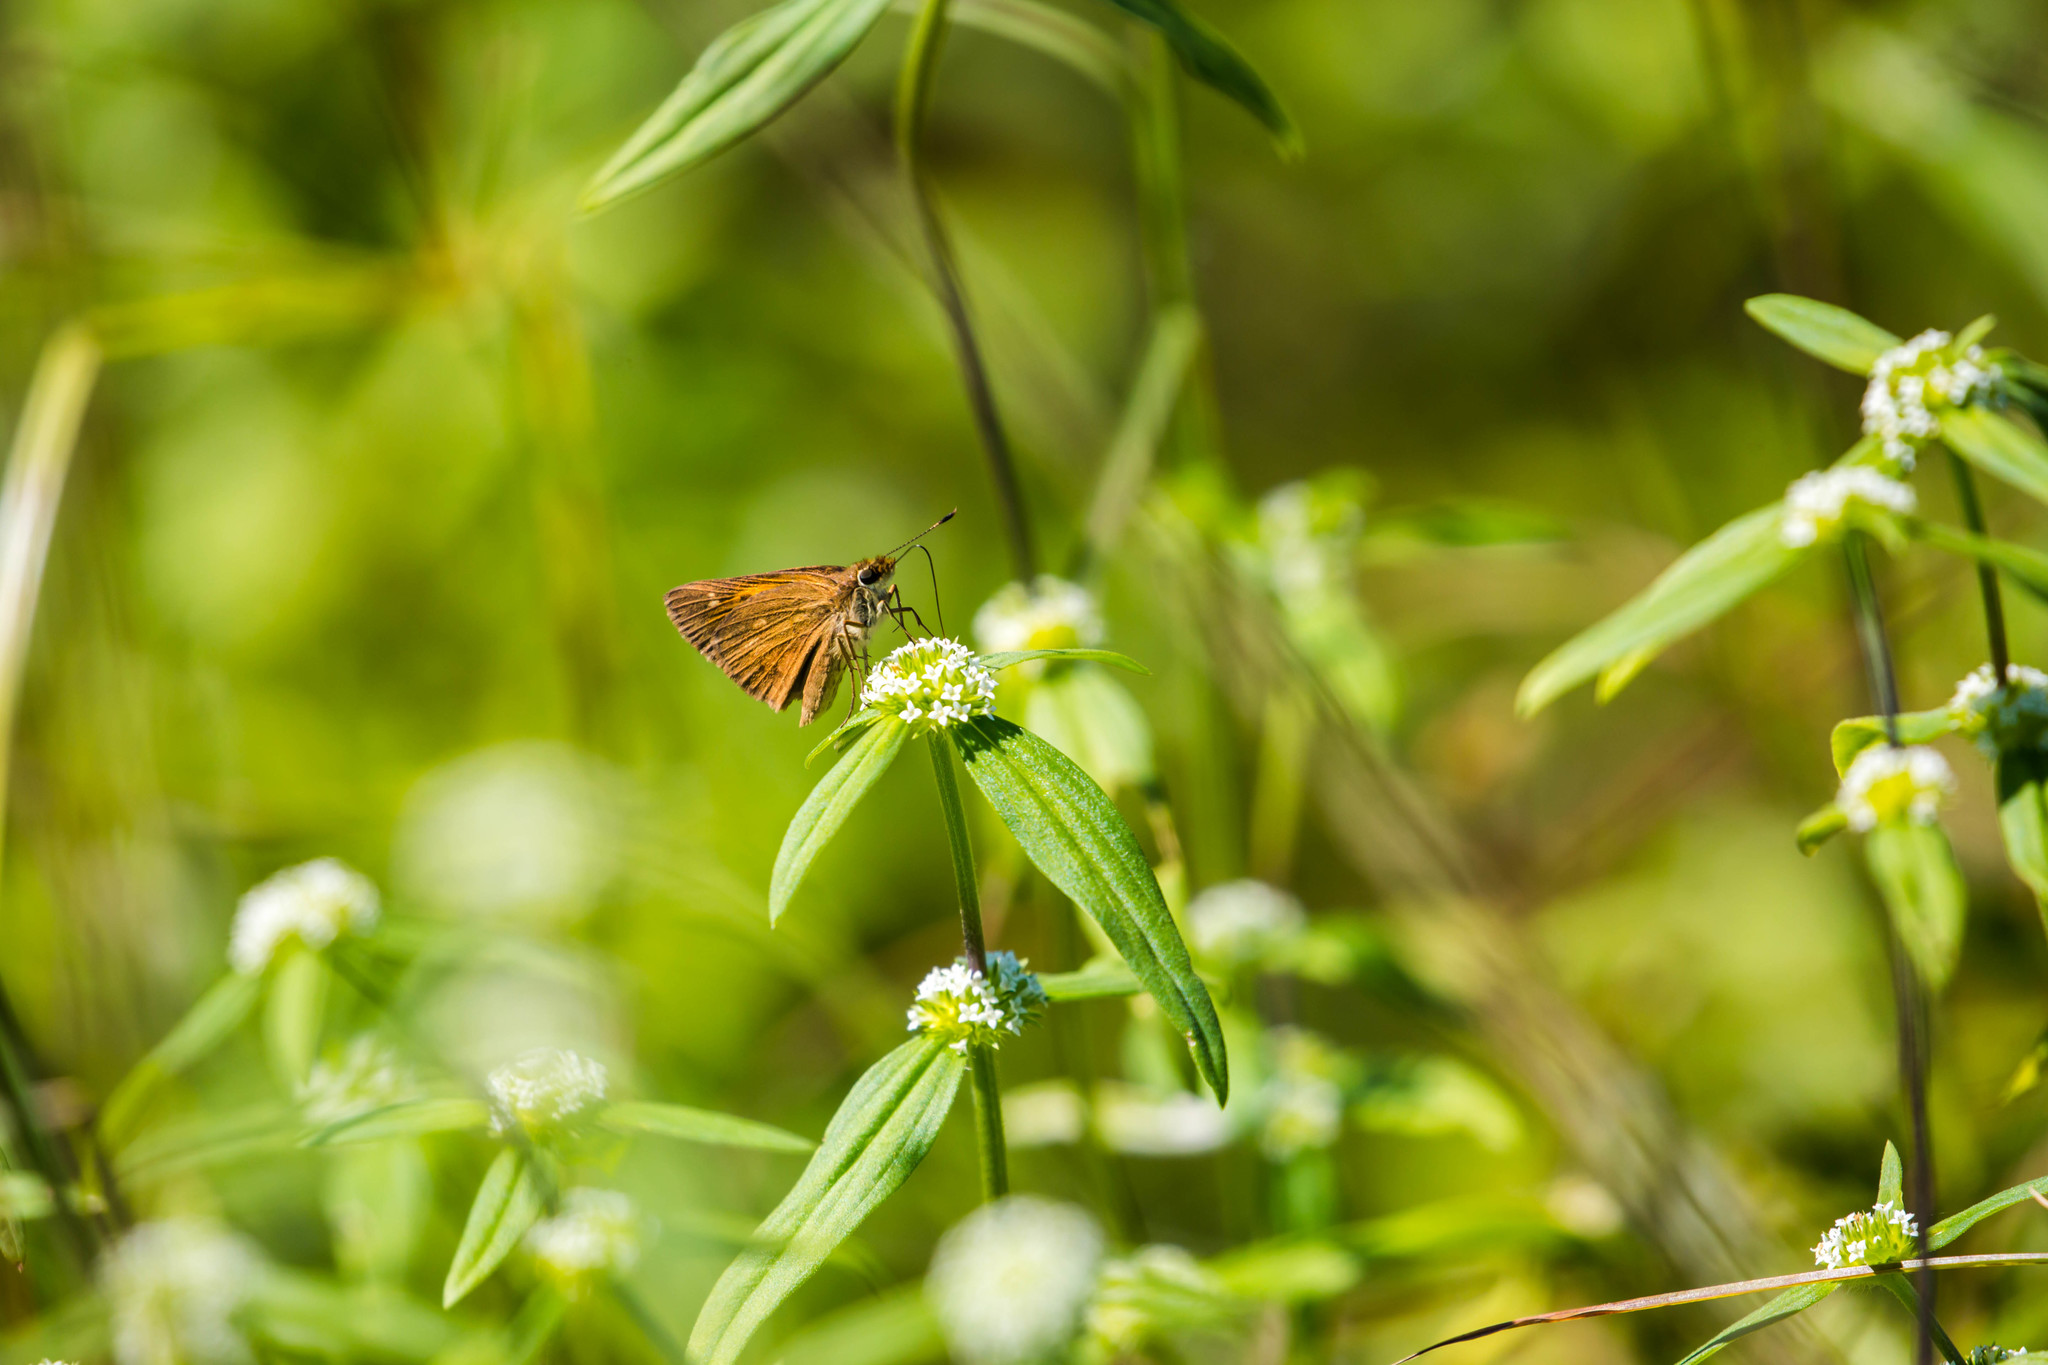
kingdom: Animalia
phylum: Arthropoda
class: Insecta
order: Lepidoptera
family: Hesperiidae
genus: Poanes
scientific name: Poanes viator
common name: Broad-winged skipper
